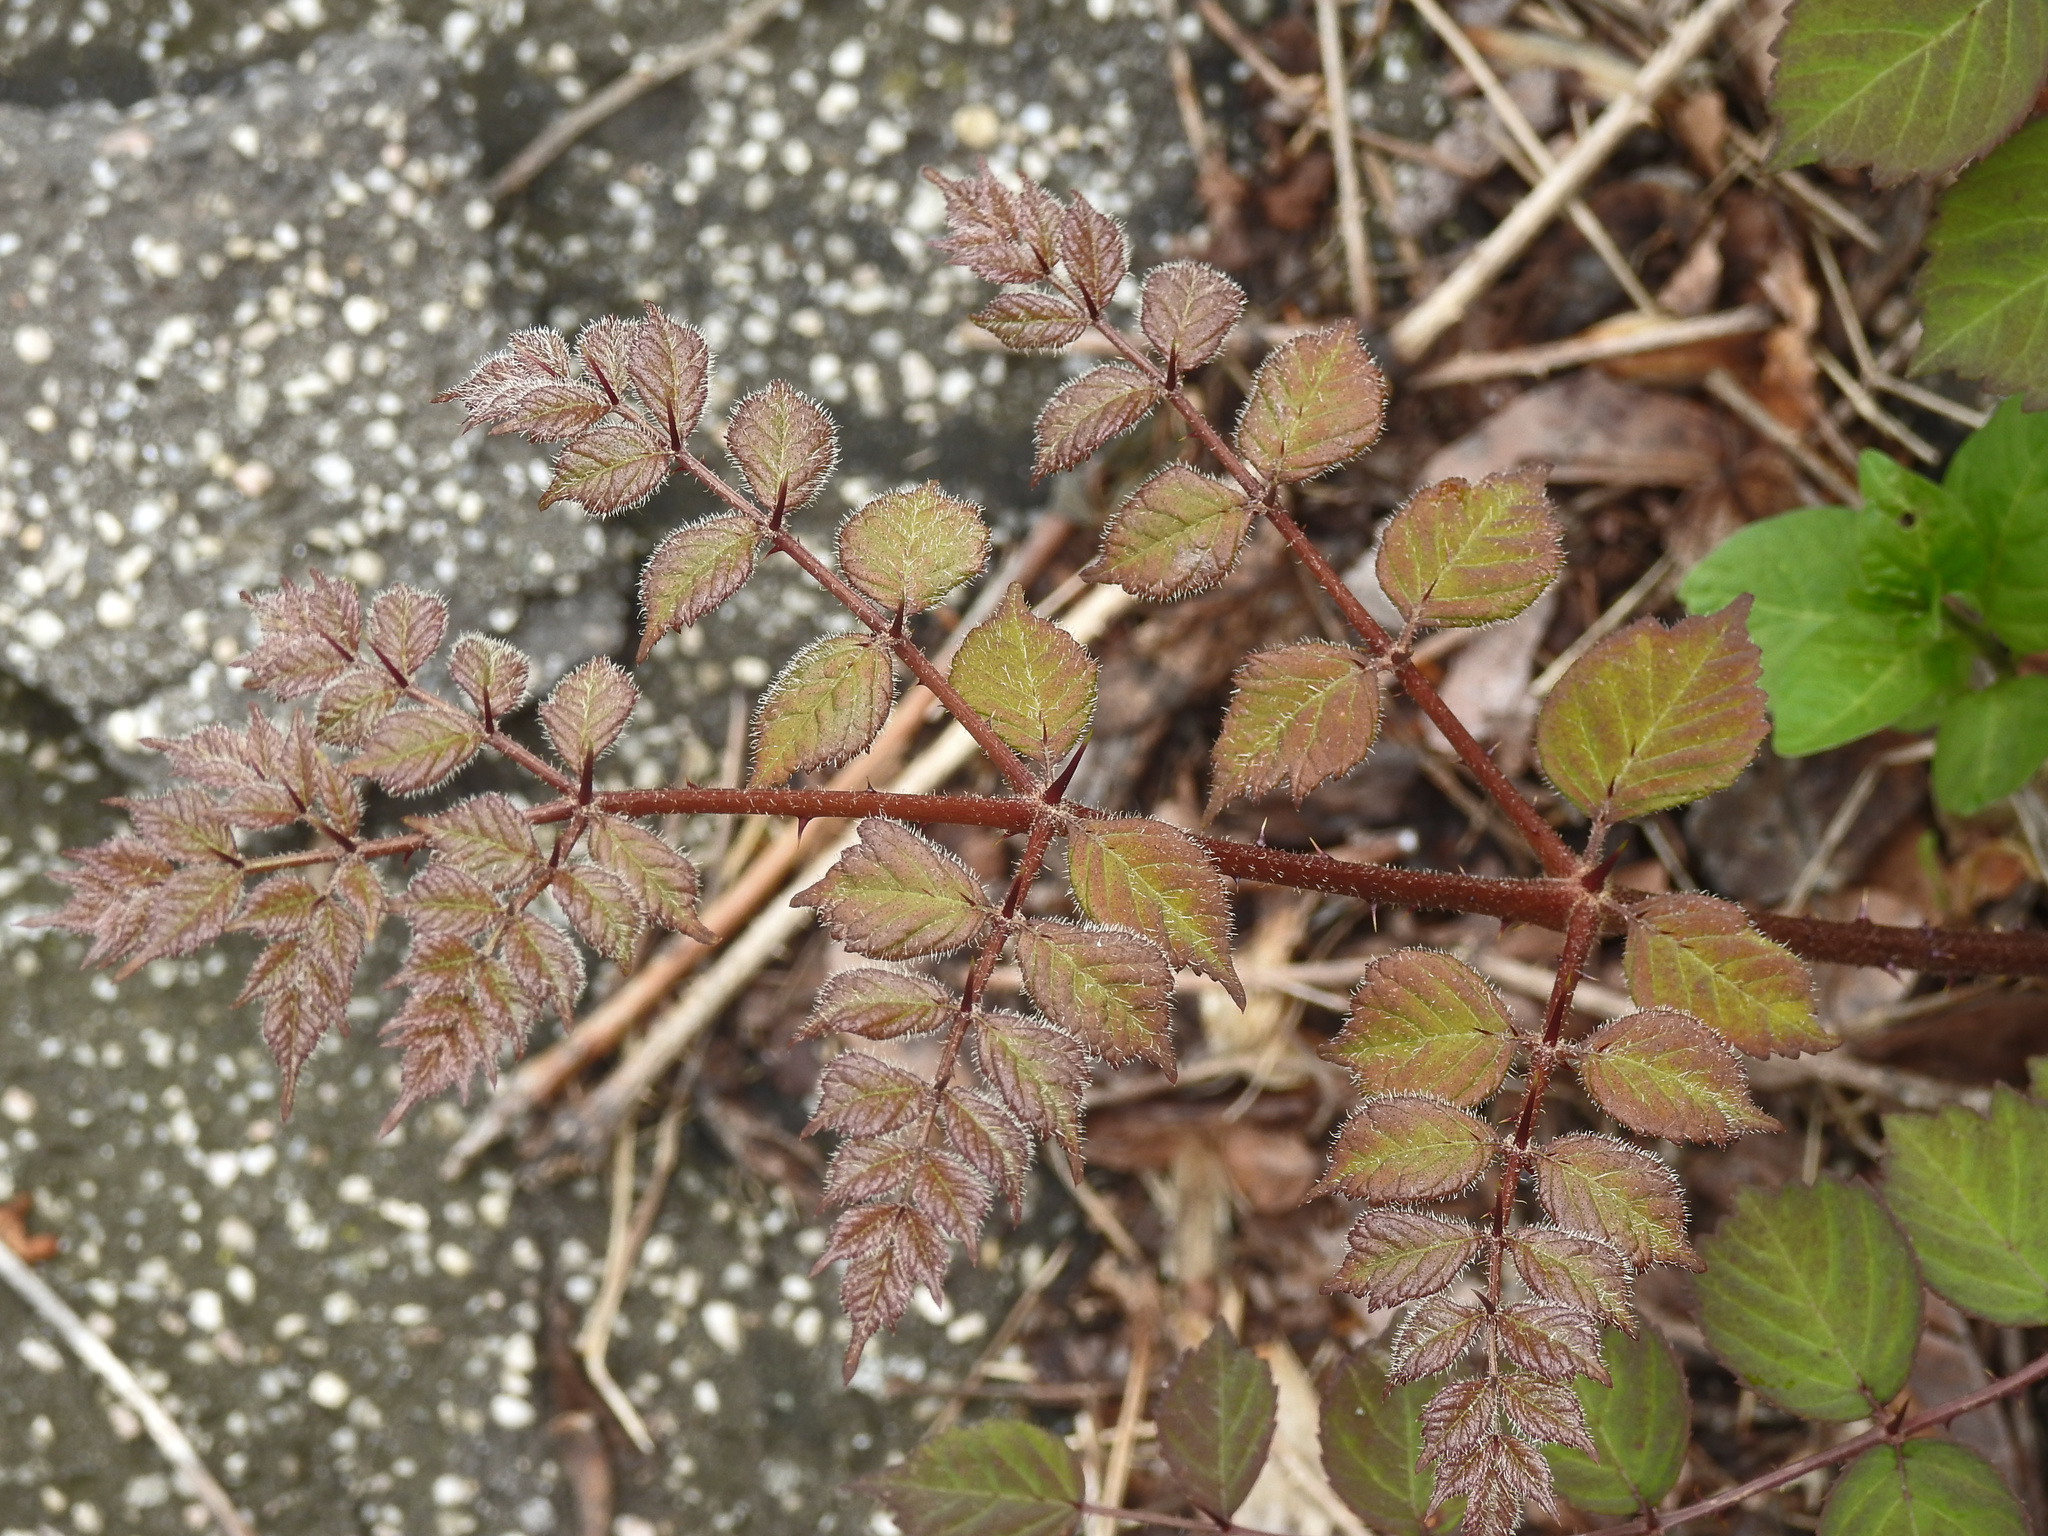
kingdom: Plantae
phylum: Tracheophyta
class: Magnoliopsida
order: Apiales
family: Araliaceae
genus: Aralia
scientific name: Aralia elata
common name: Japanese angelica-tree
